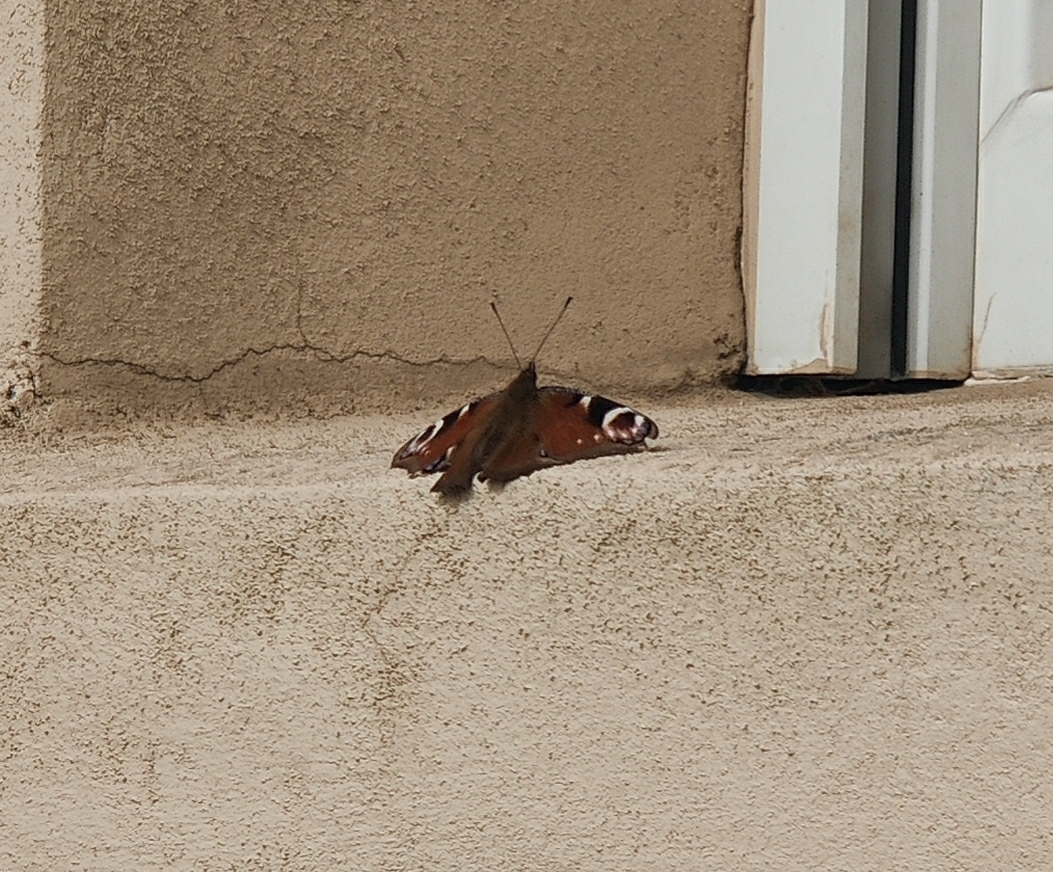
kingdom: Animalia
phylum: Arthropoda
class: Insecta
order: Lepidoptera
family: Nymphalidae
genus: Aglais
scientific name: Aglais io
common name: Peacock
